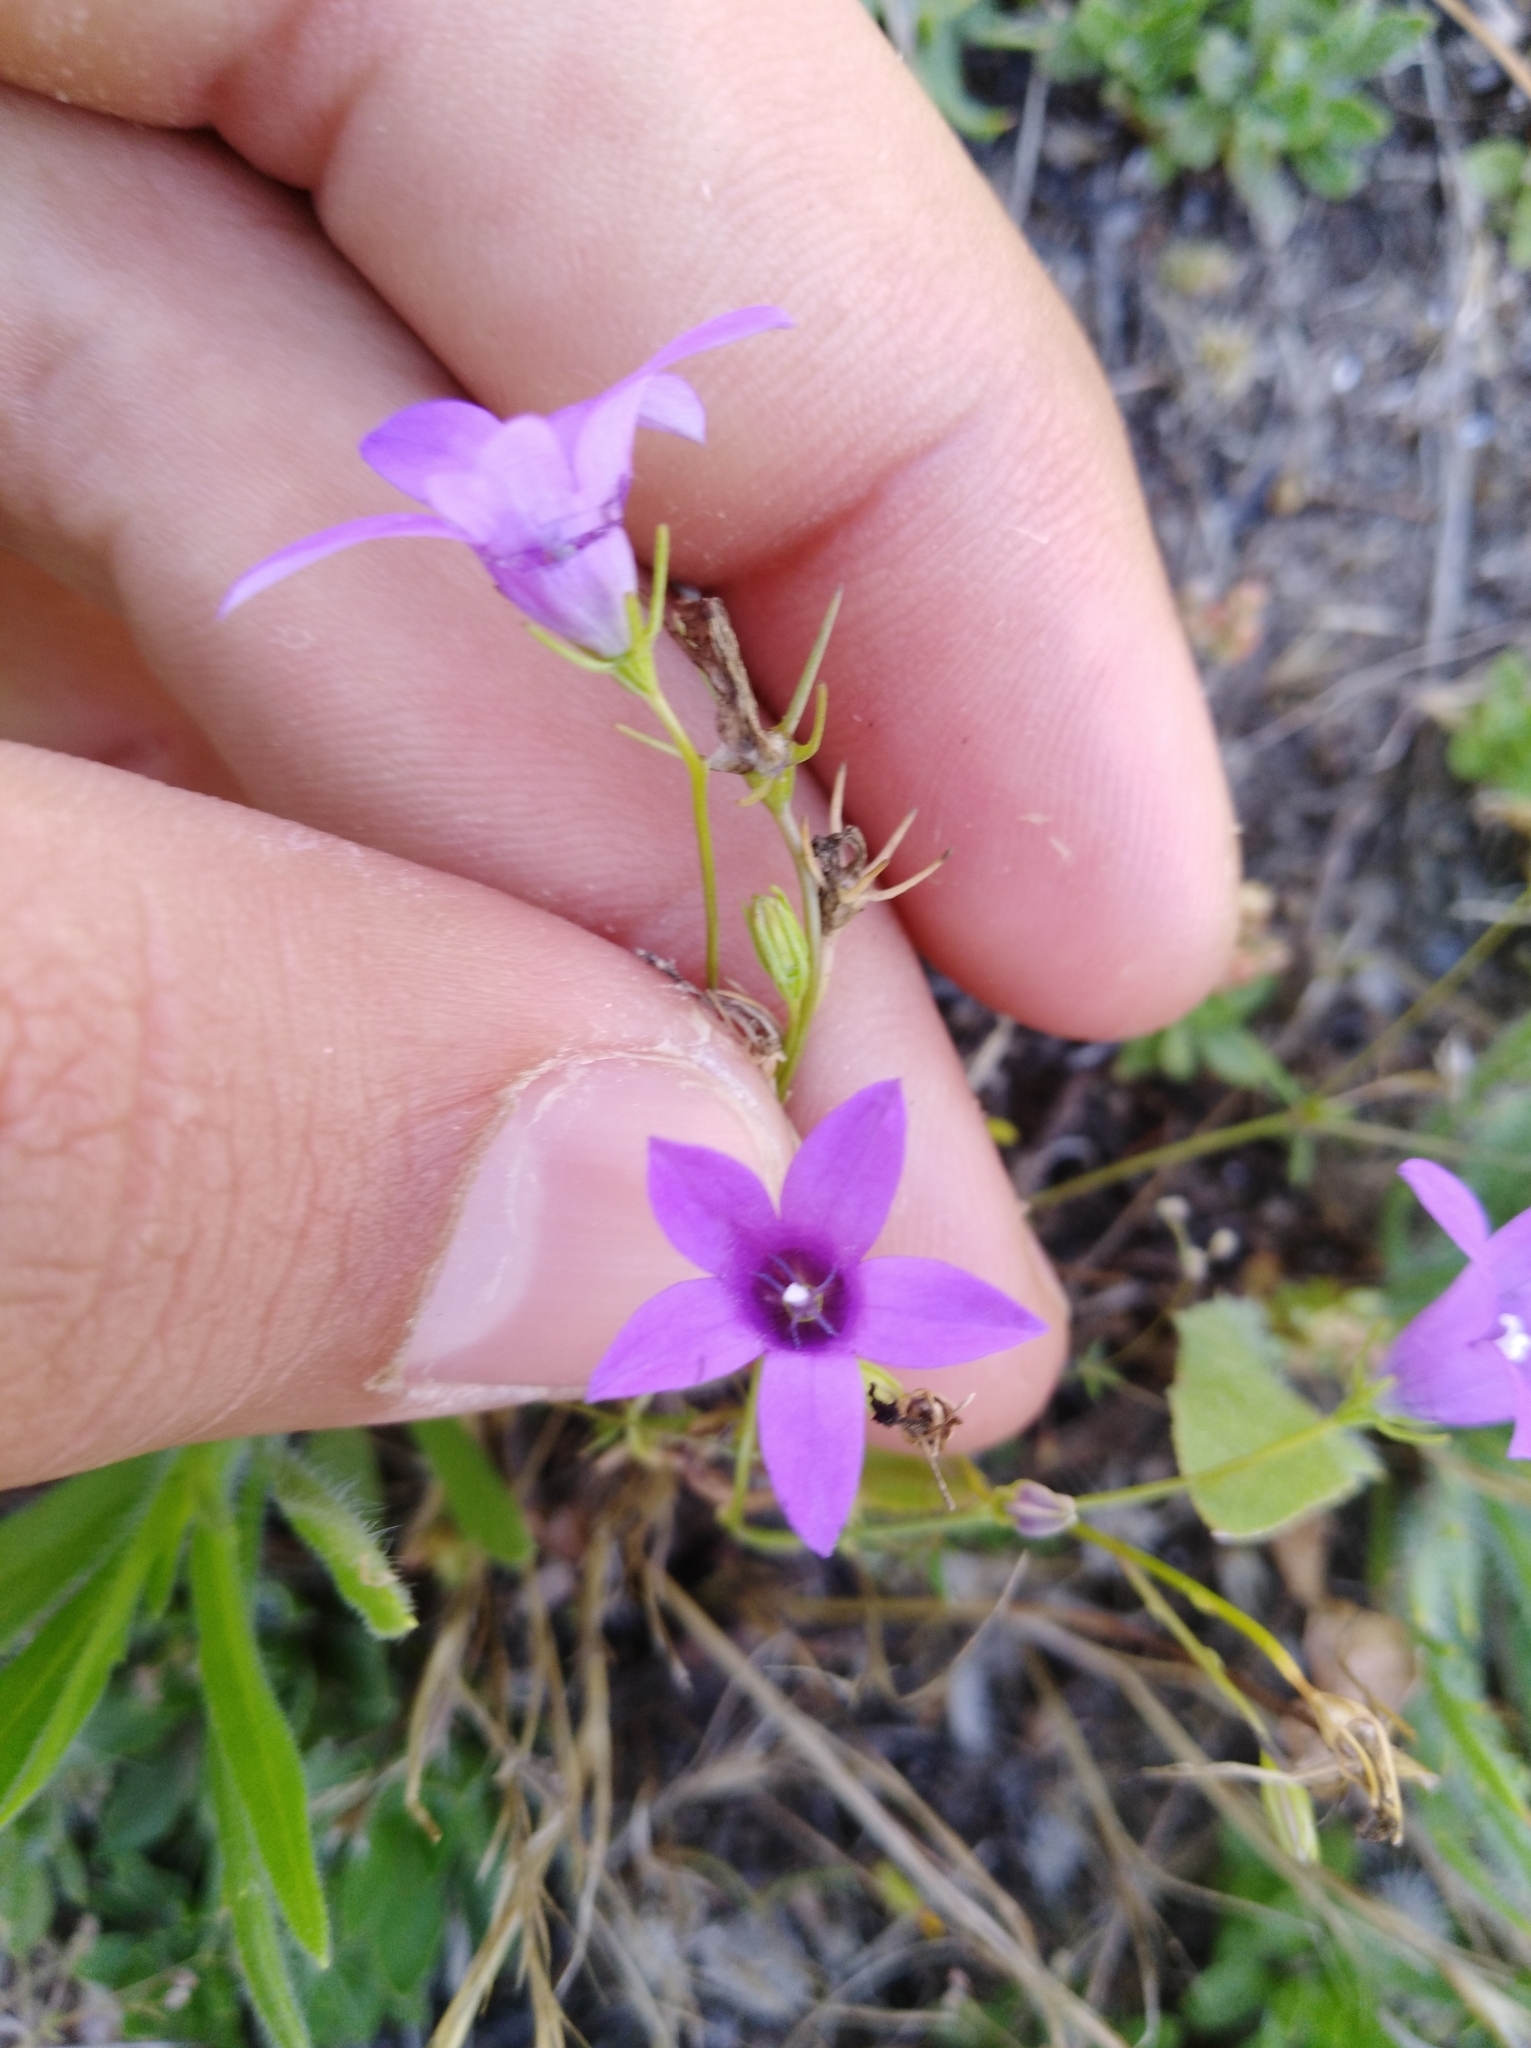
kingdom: Plantae
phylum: Tracheophyta
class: Magnoliopsida
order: Asterales
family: Campanulaceae
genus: Campanula
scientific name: Campanula lusitanica
